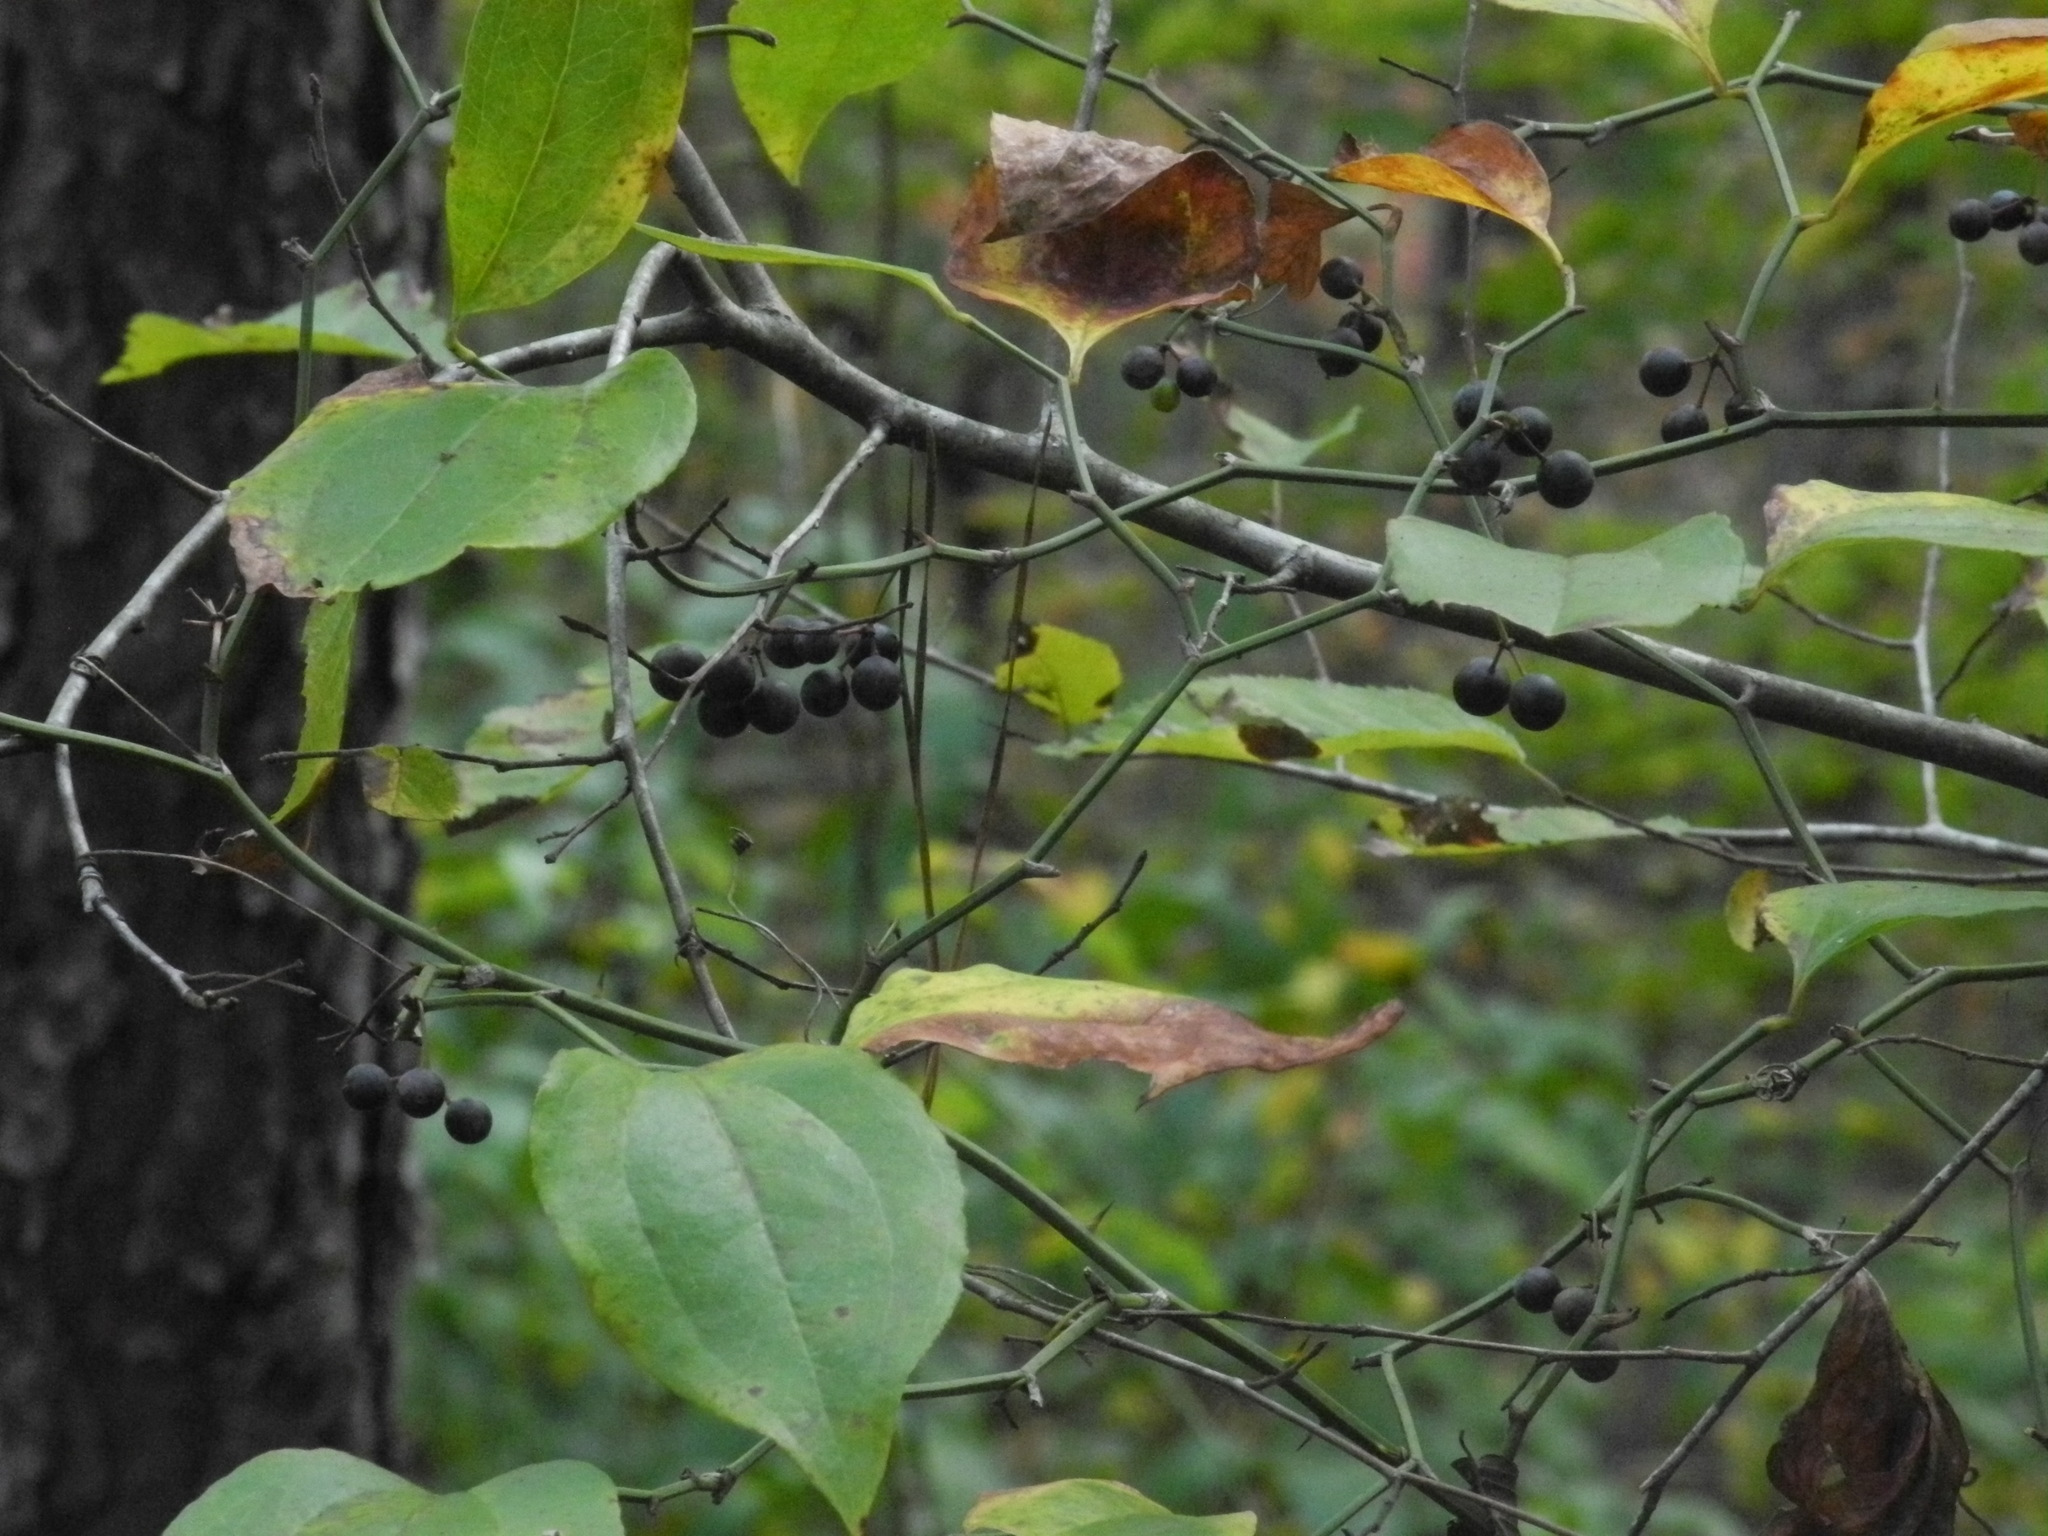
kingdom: Plantae
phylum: Tracheophyta
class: Liliopsida
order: Liliales
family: Smilacaceae
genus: Smilax
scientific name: Smilax rotundifolia
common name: Bullbriar
